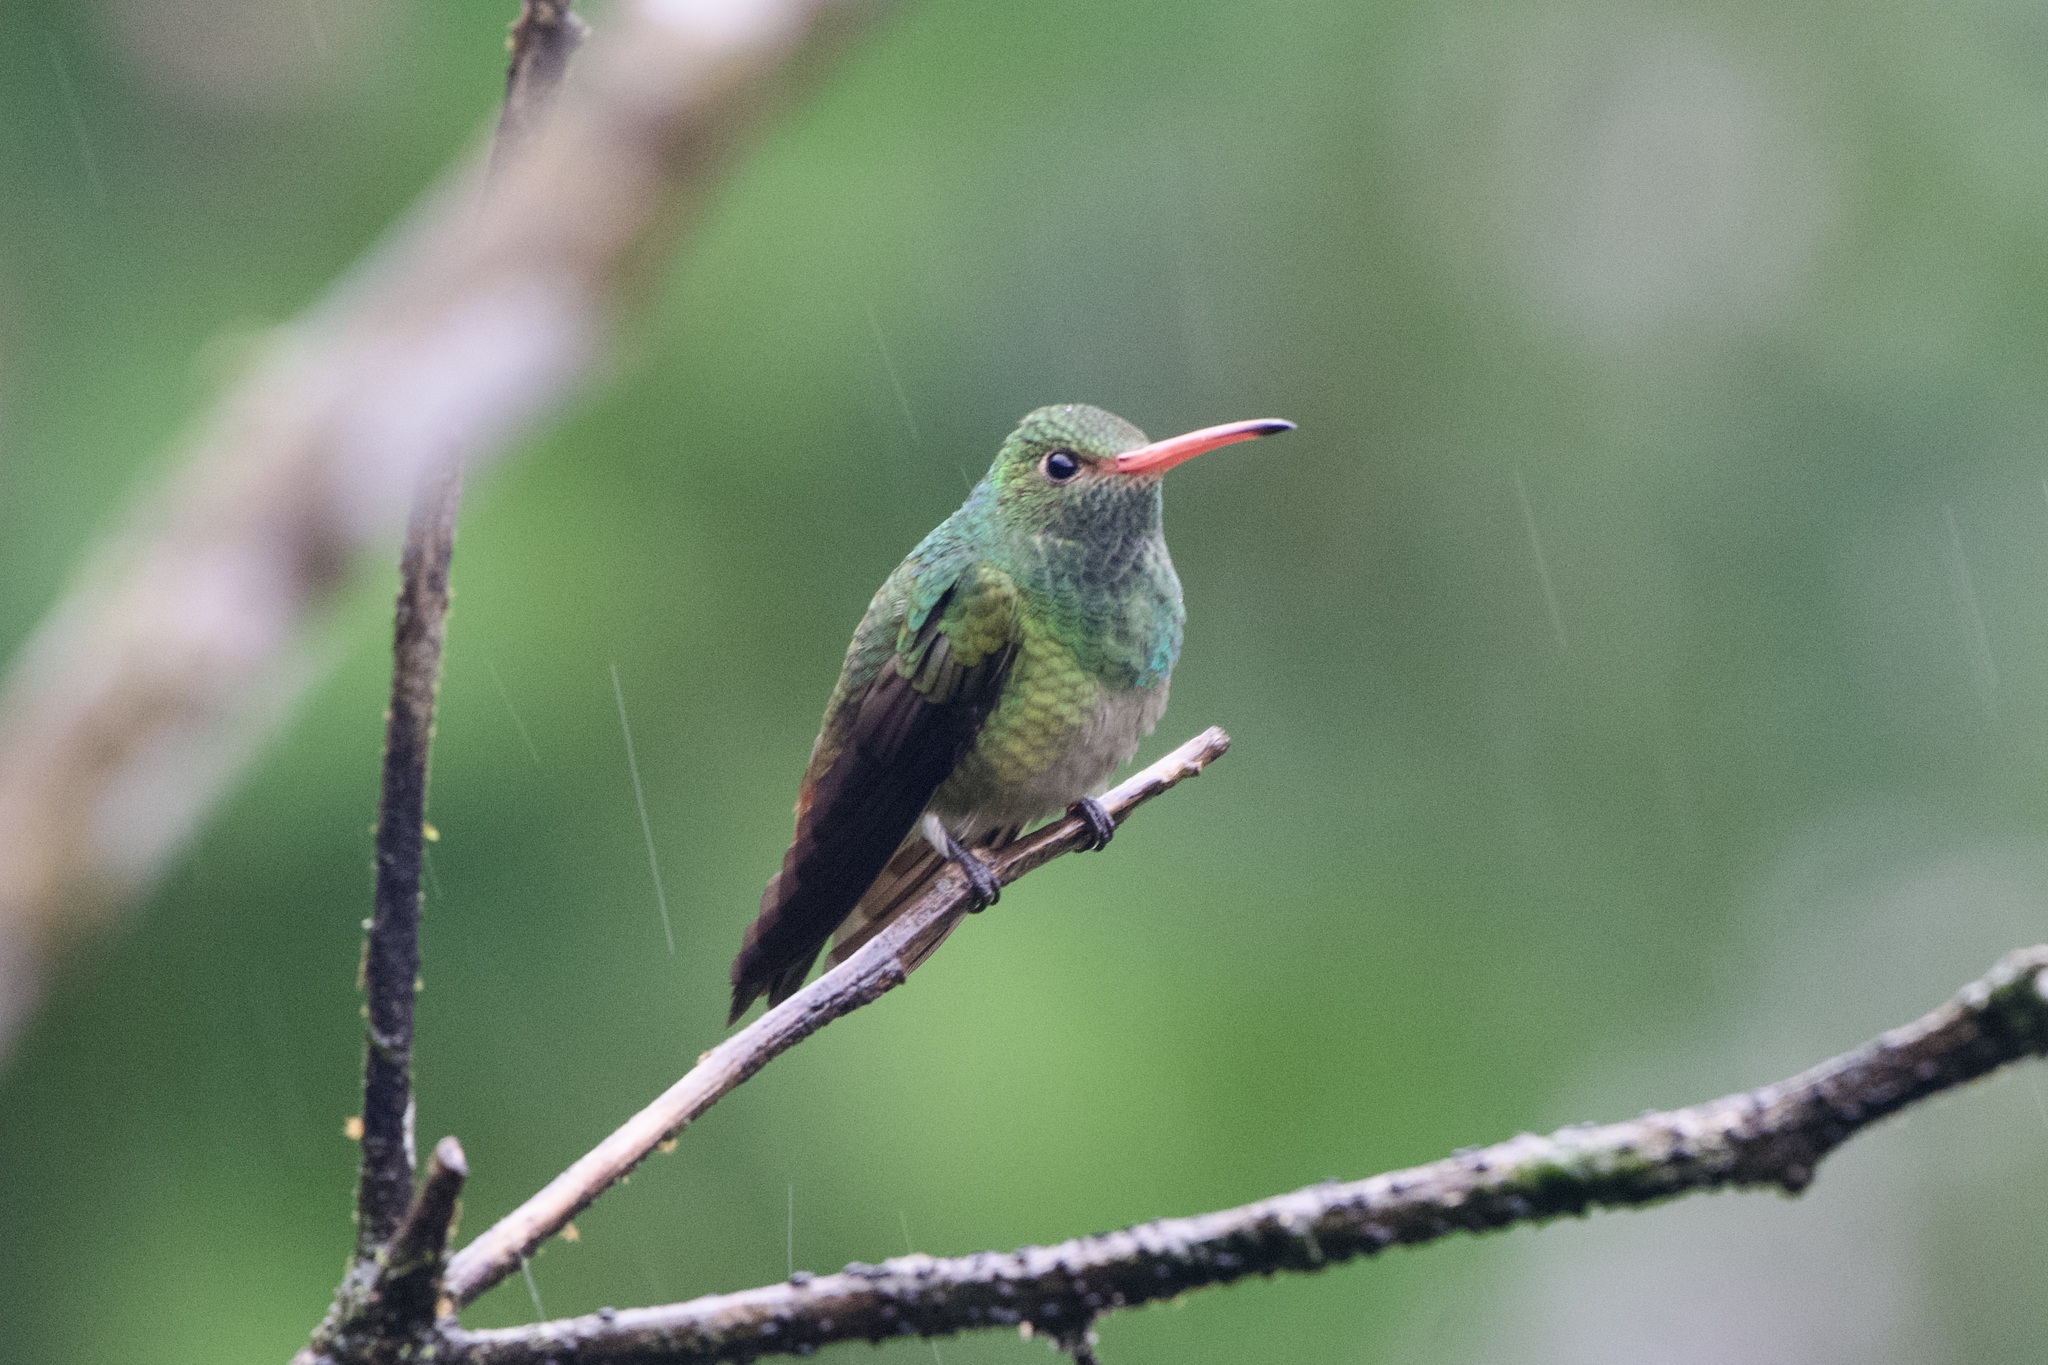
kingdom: Animalia
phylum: Chordata
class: Aves
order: Apodiformes
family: Trochilidae
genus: Amazilia
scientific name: Amazilia tzacatl
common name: Rufous-tailed hummingbird
